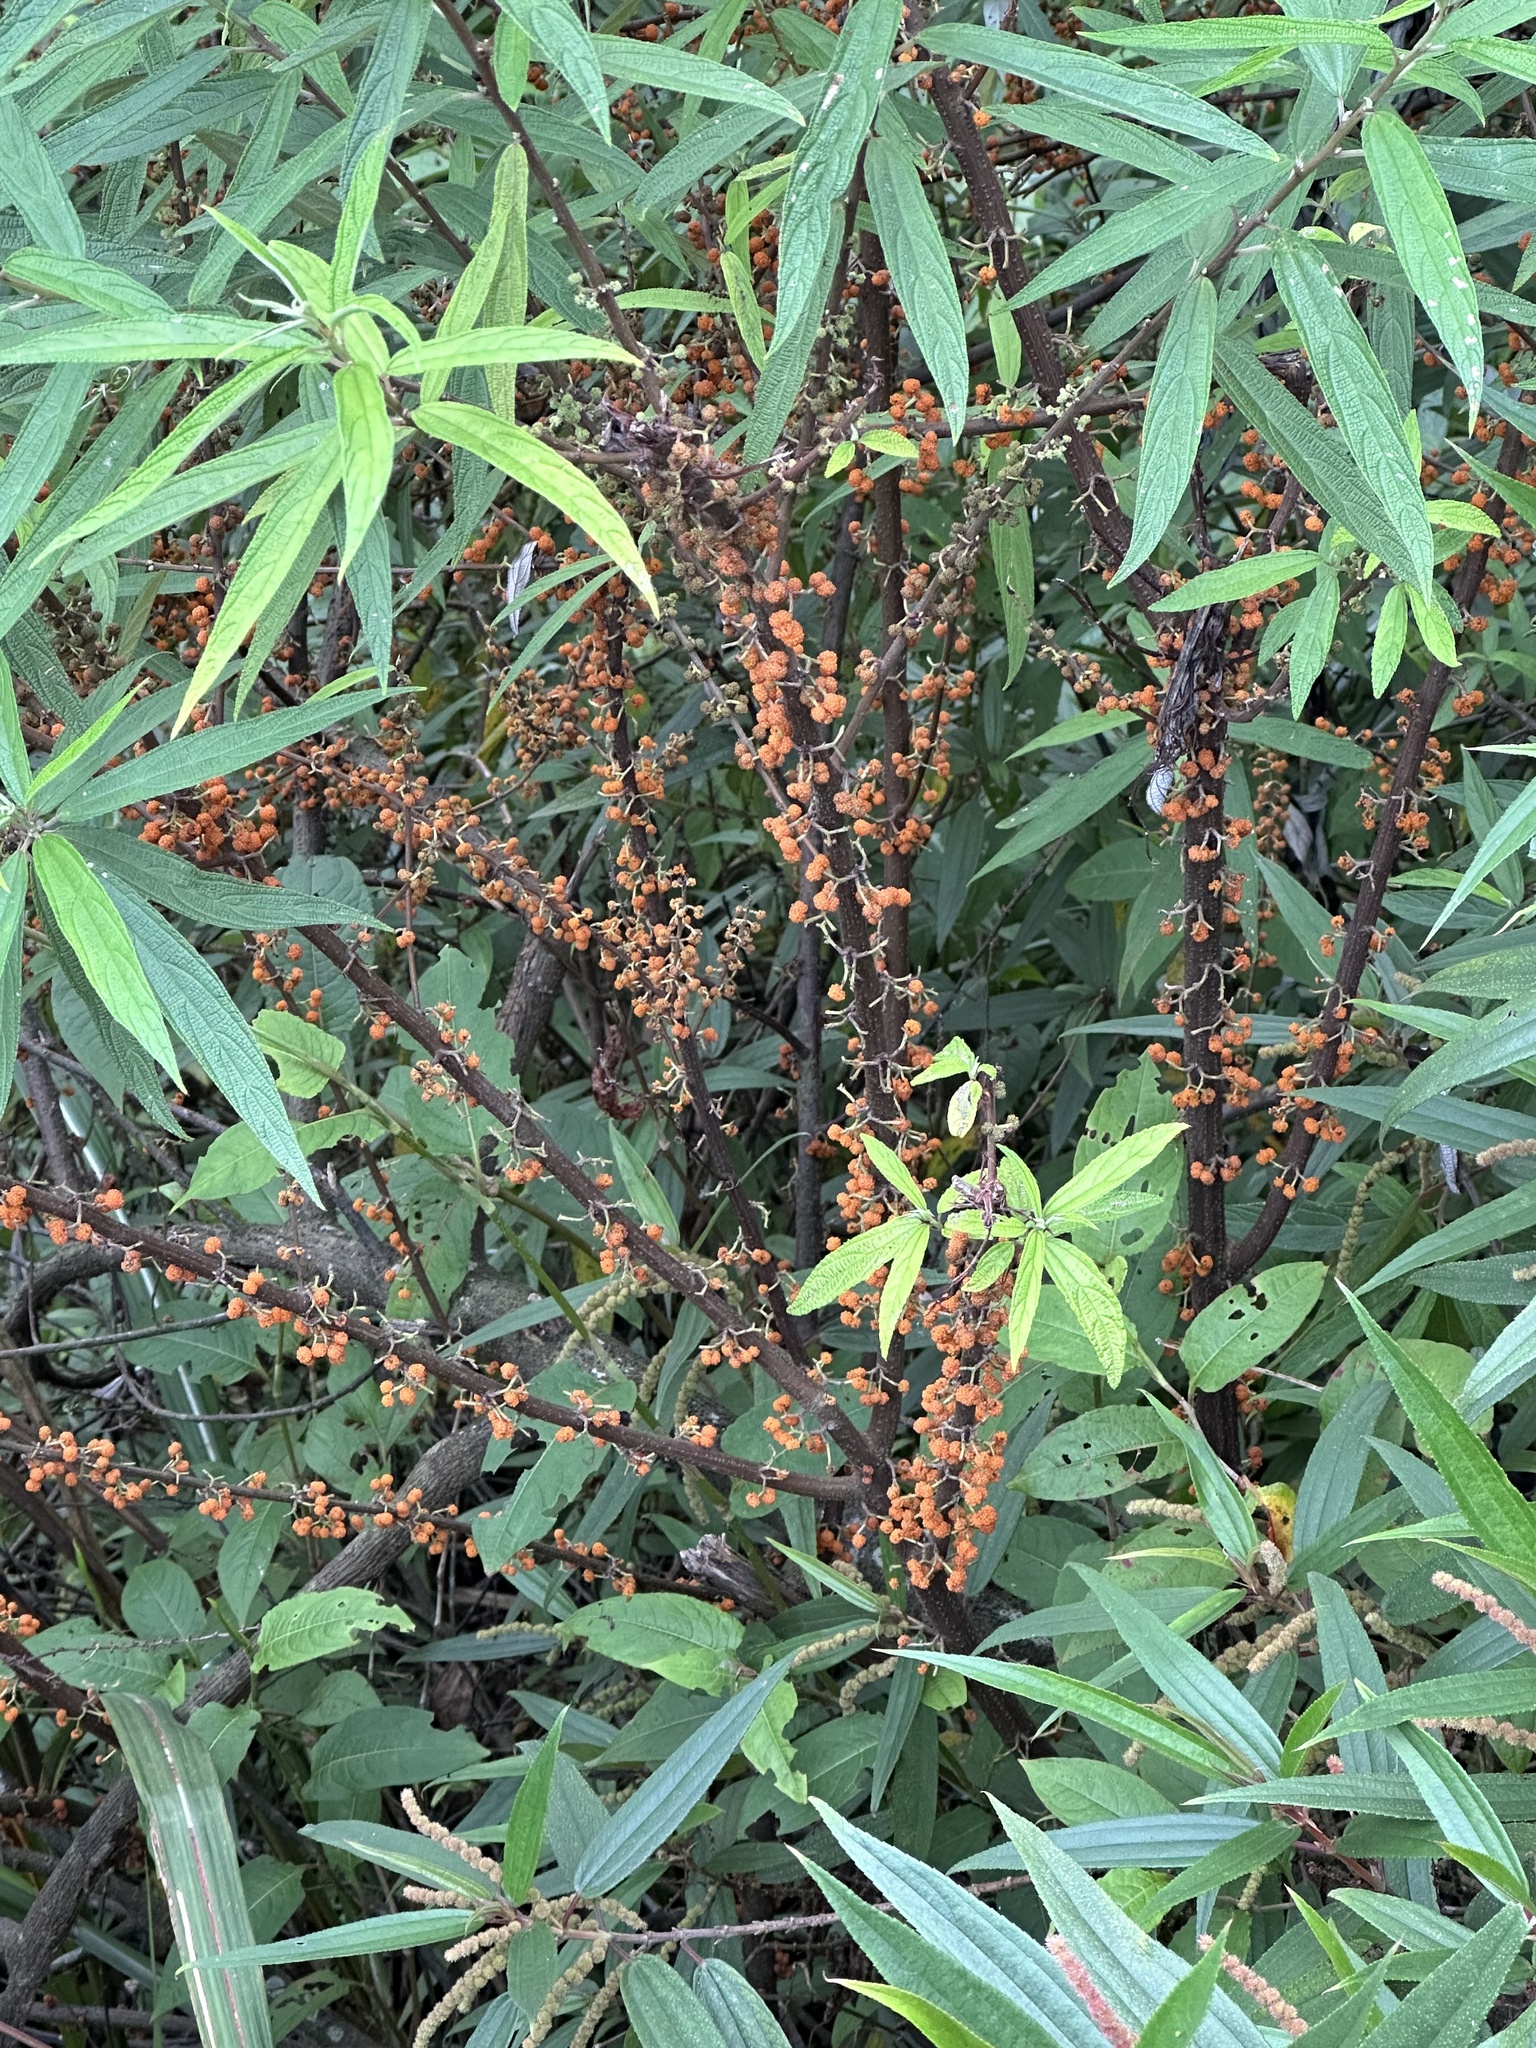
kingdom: Plantae
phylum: Tracheophyta
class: Magnoliopsida
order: Rosales
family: Urticaceae
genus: Debregeasia
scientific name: Debregeasia orientalis
